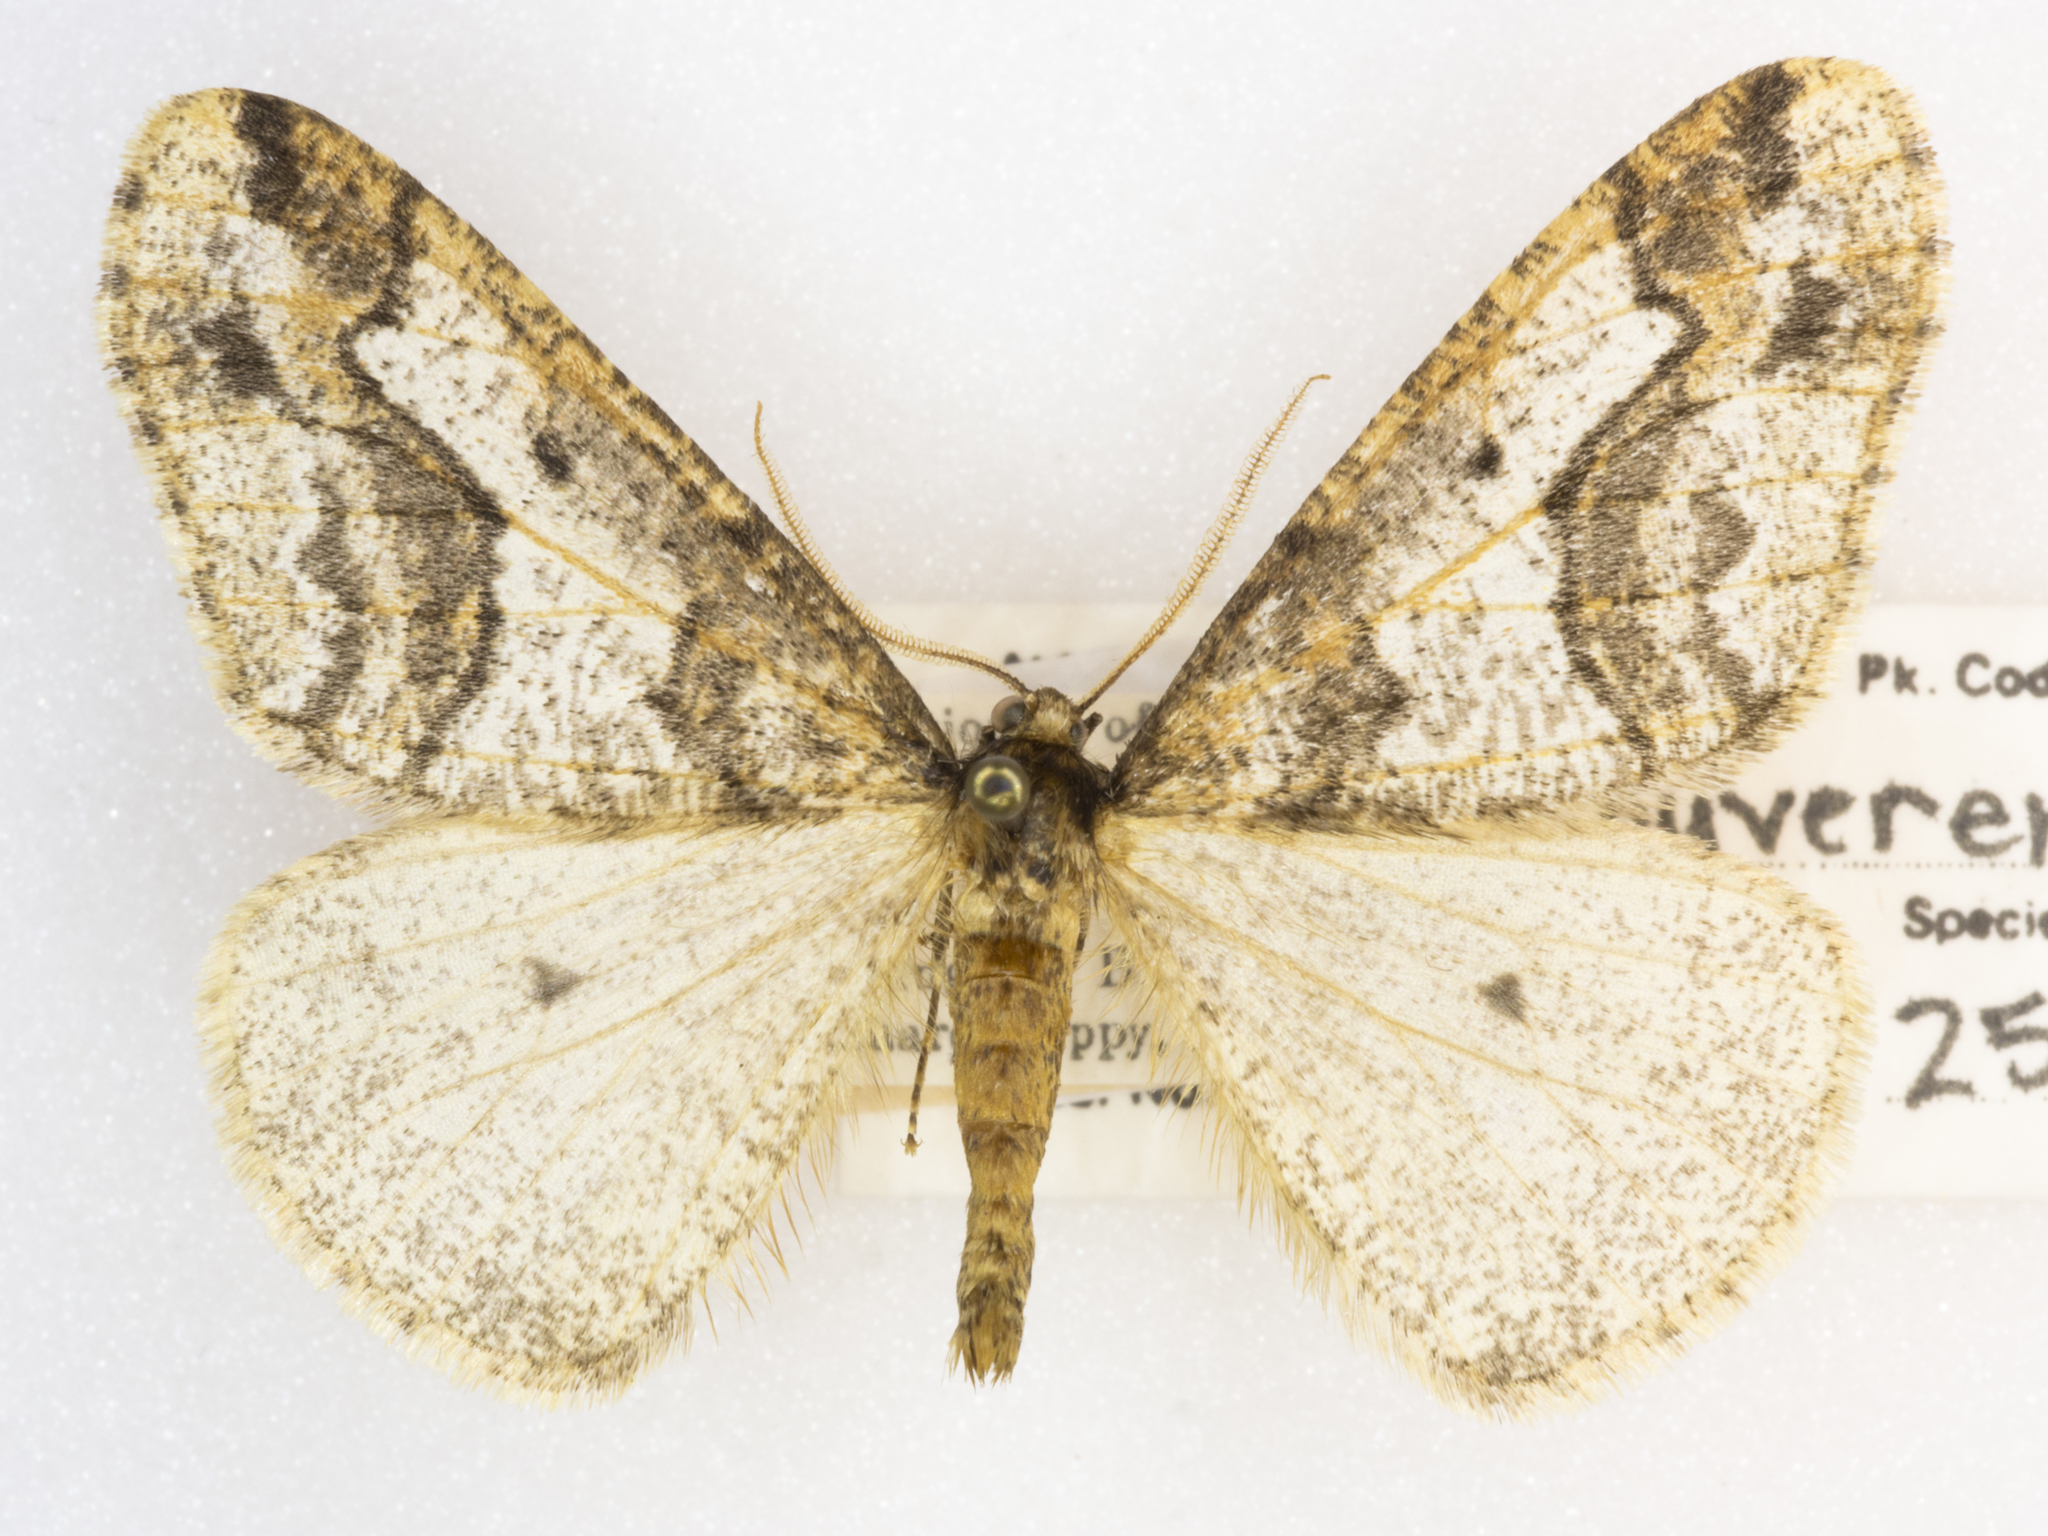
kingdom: Animalia
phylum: Arthropoda
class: Insecta
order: Lepidoptera
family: Geometridae
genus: Erannis
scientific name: Erannis vancouverensis
